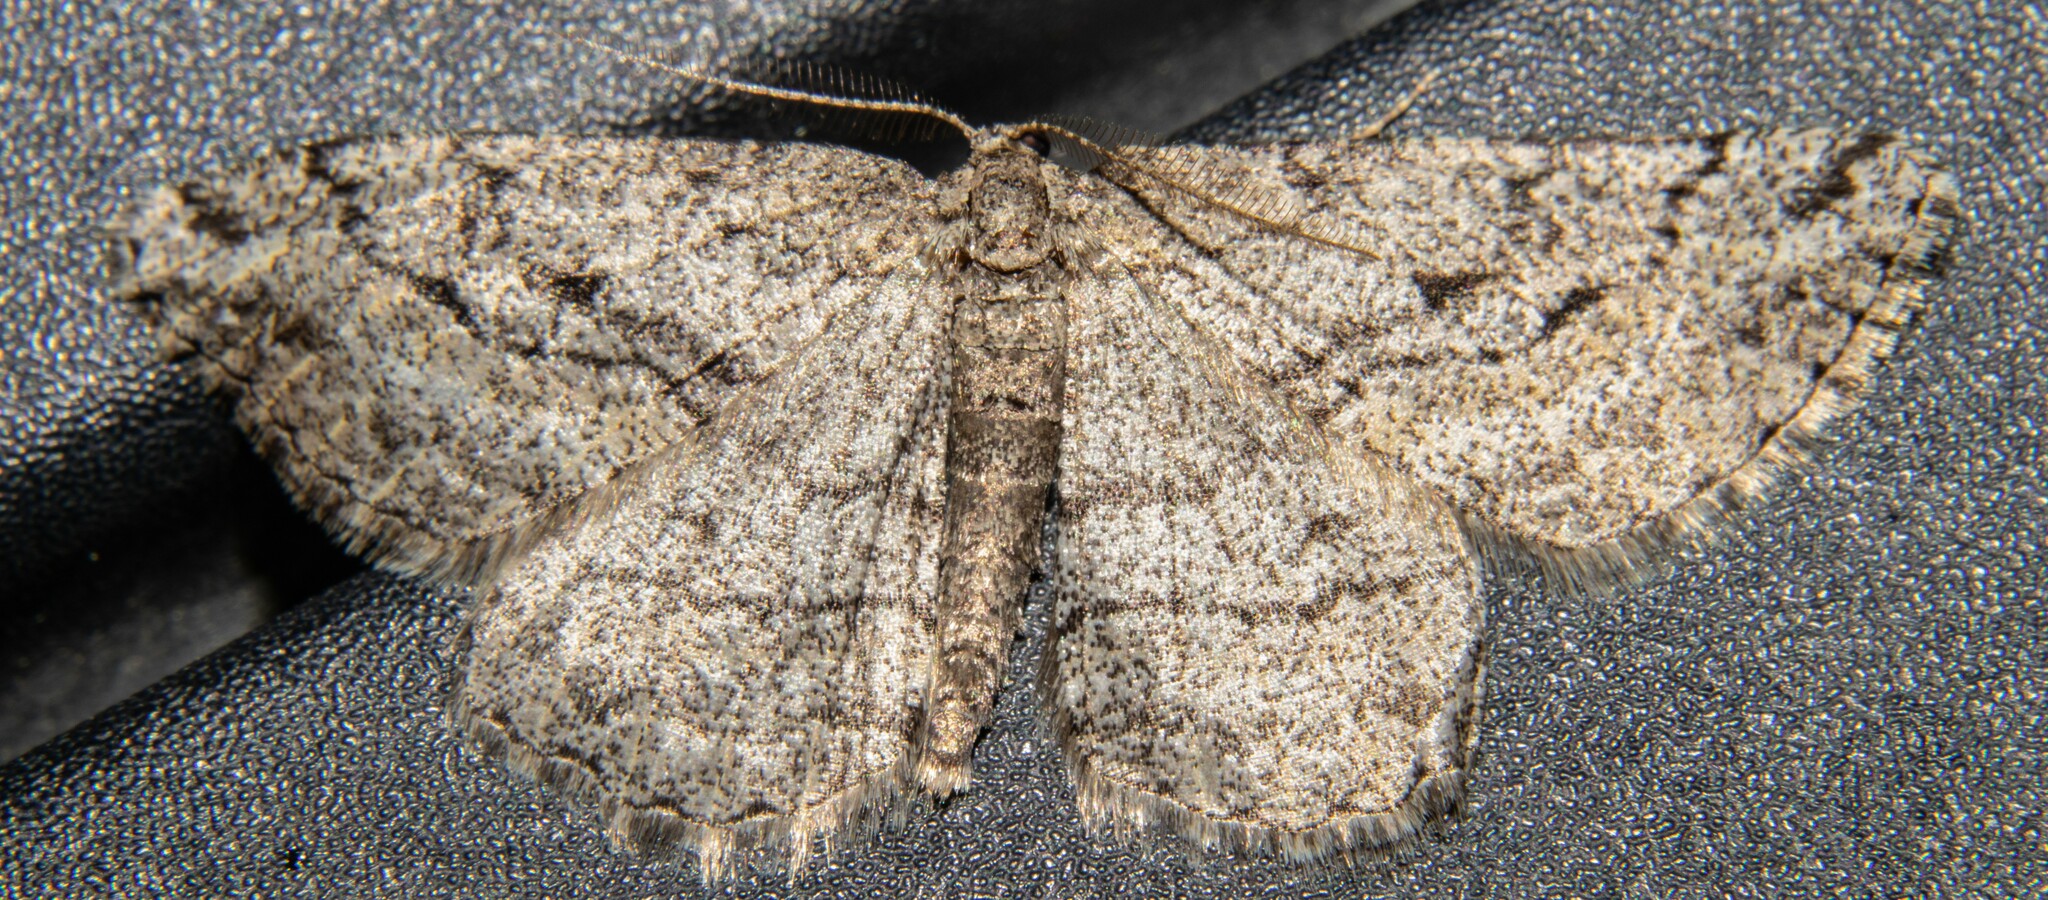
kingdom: Animalia
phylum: Arthropoda
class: Insecta
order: Lepidoptera
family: Geometridae
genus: Zermizinga
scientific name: Zermizinga indocilisaria
